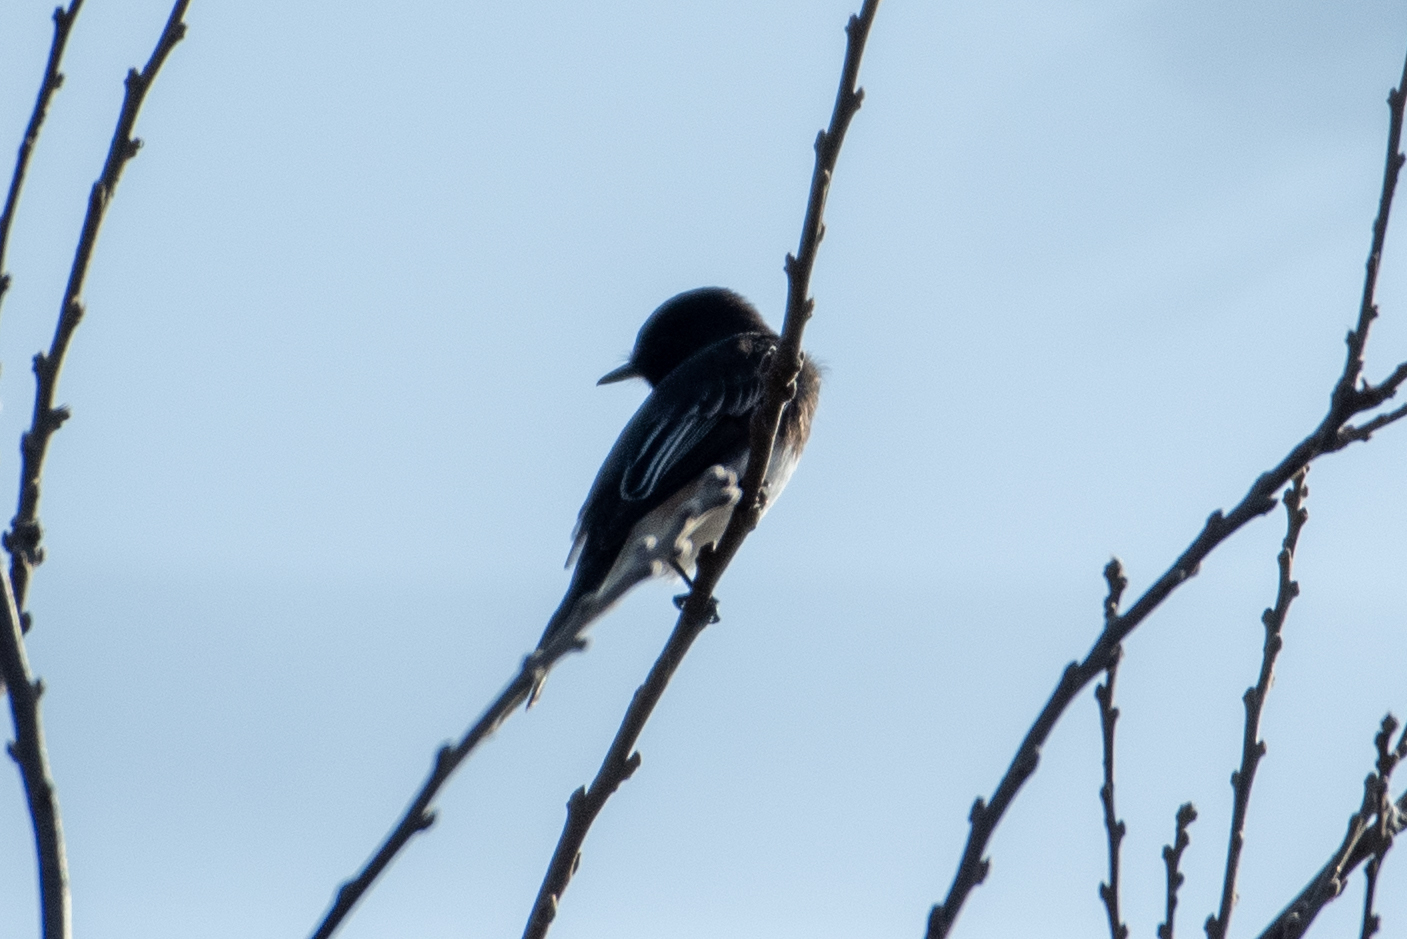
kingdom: Animalia
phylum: Chordata
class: Aves
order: Passeriformes
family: Tyrannidae
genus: Sayornis
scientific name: Sayornis nigricans
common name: Black phoebe
